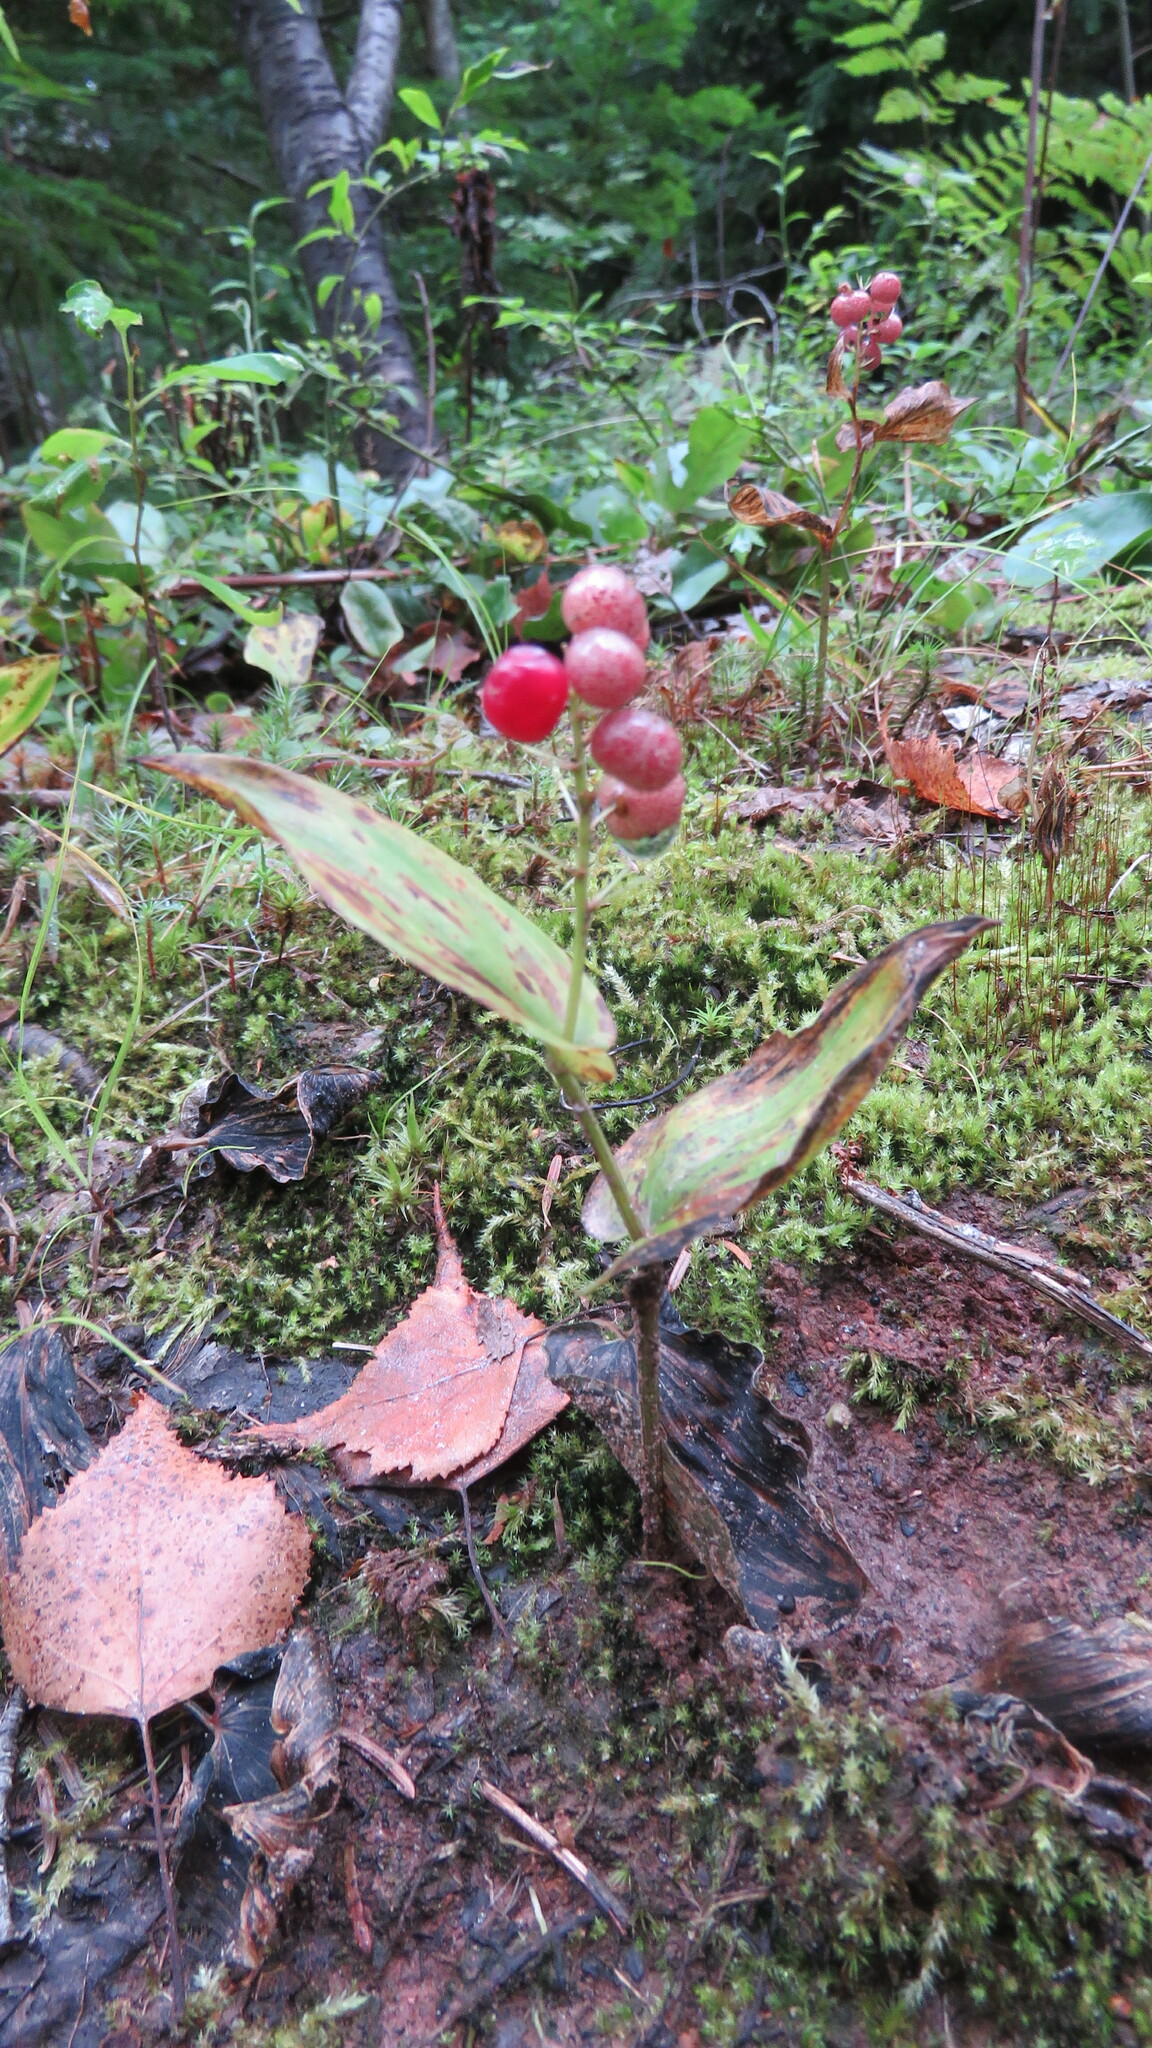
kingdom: Plantae
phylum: Tracheophyta
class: Liliopsida
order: Asparagales
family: Asparagaceae
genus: Maianthemum
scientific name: Maianthemum canadense
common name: False lily-of-the-valley
